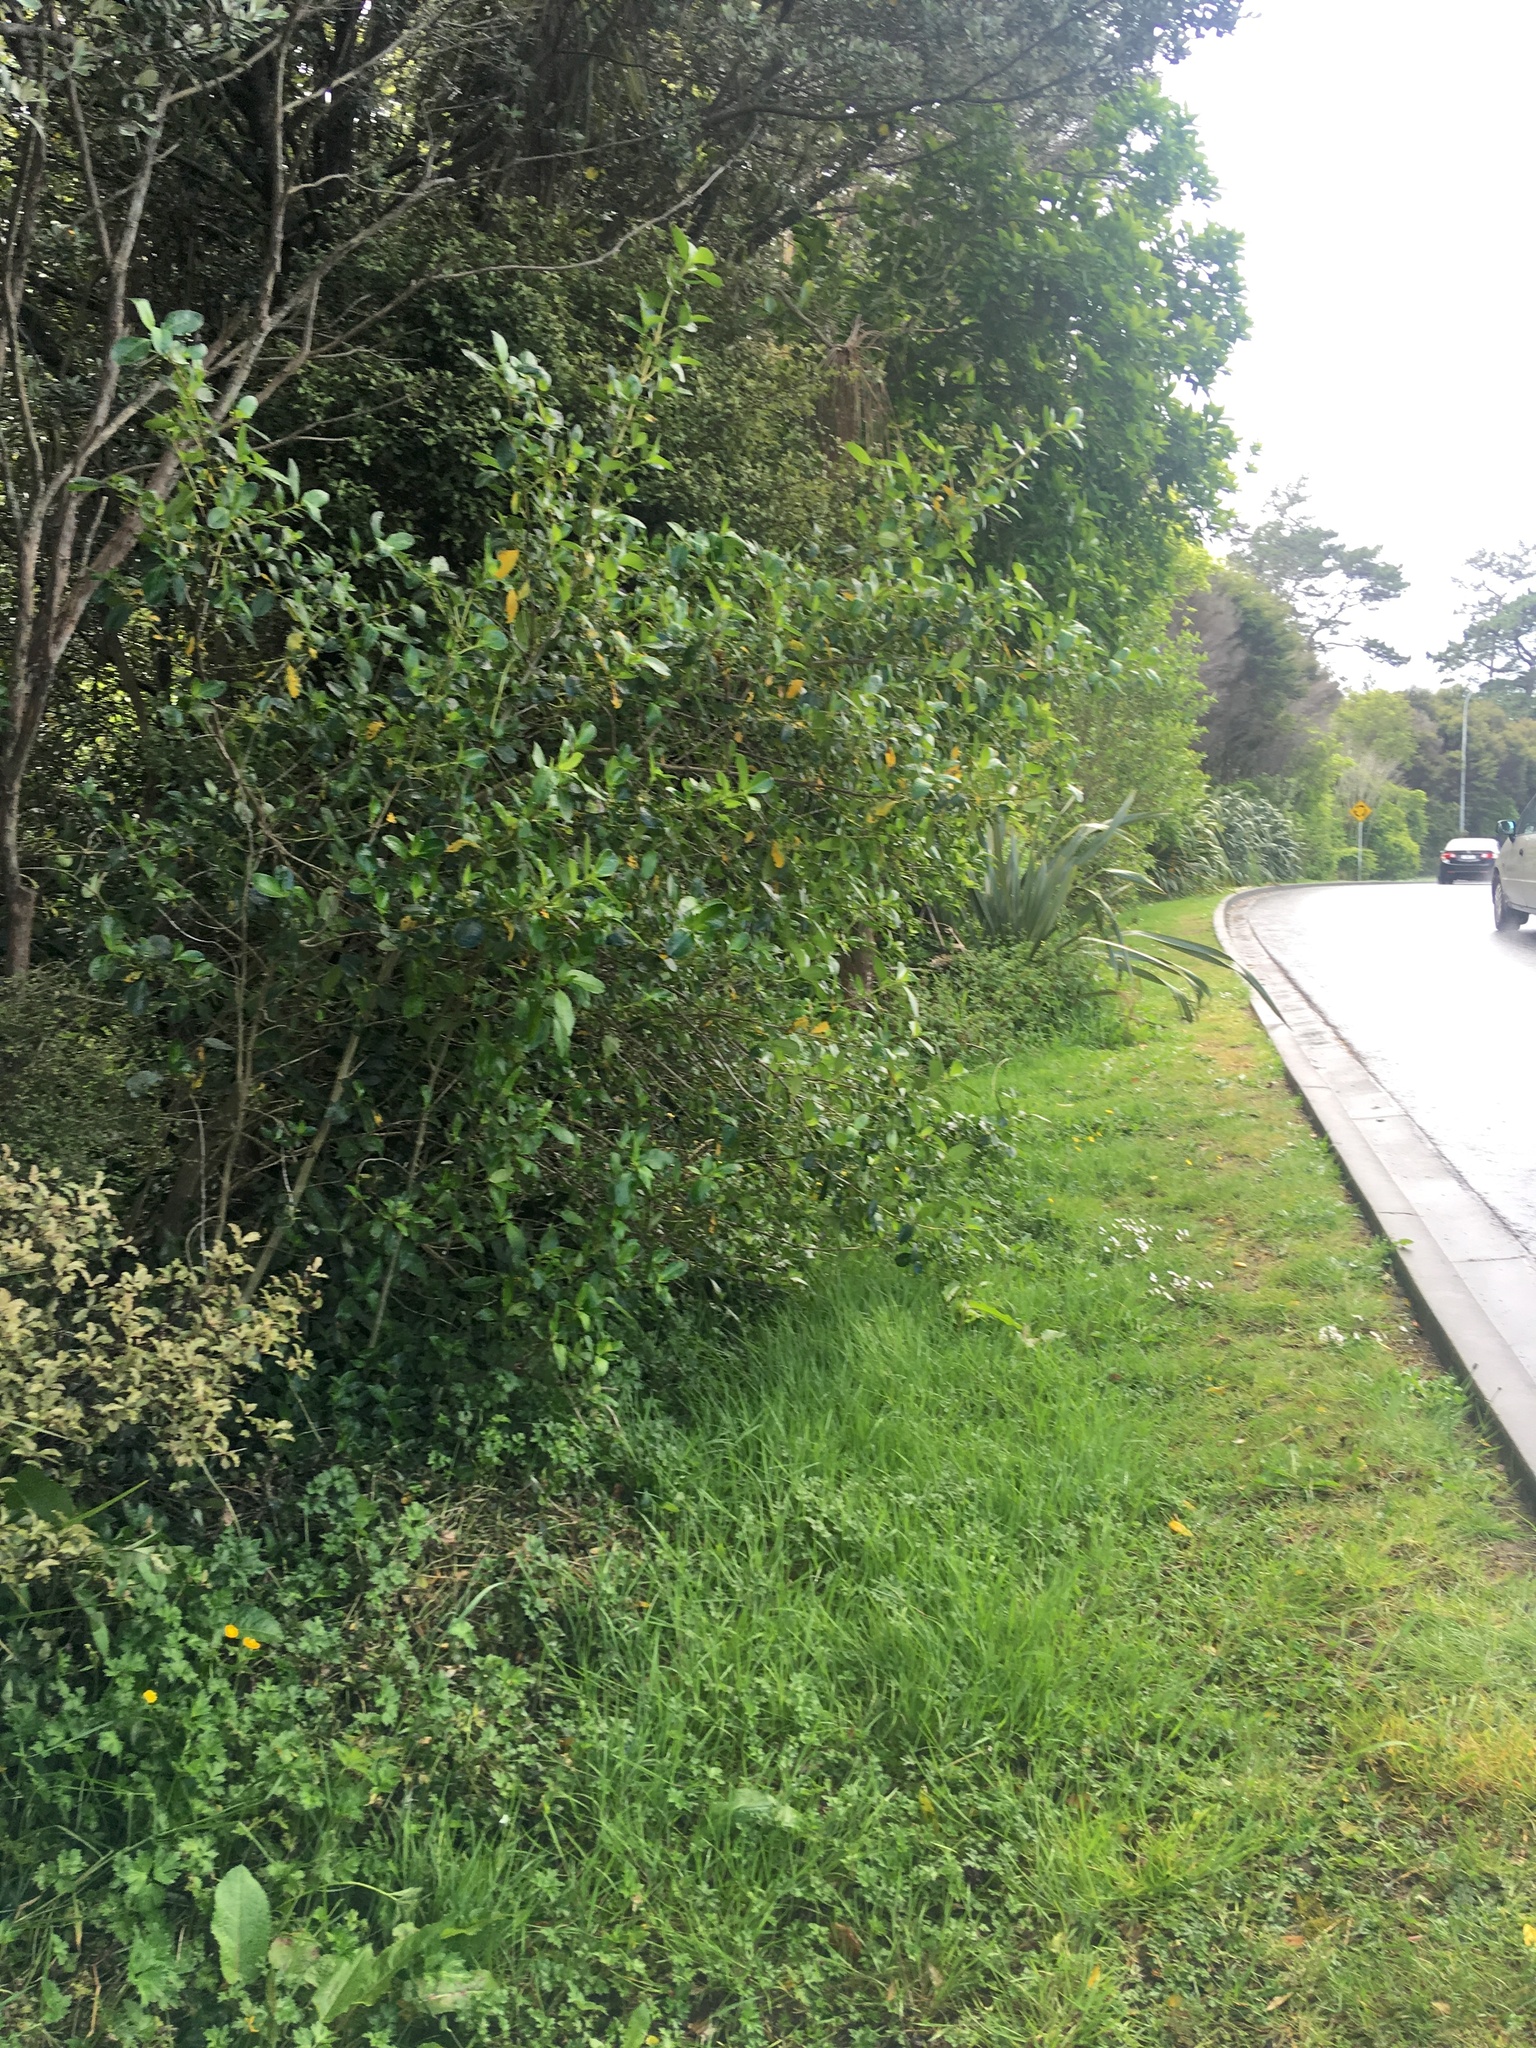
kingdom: Plantae
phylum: Tracheophyta
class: Magnoliopsida
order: Gentianales
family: Rubiaceae
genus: Coprosma
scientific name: Coprosma robusta
